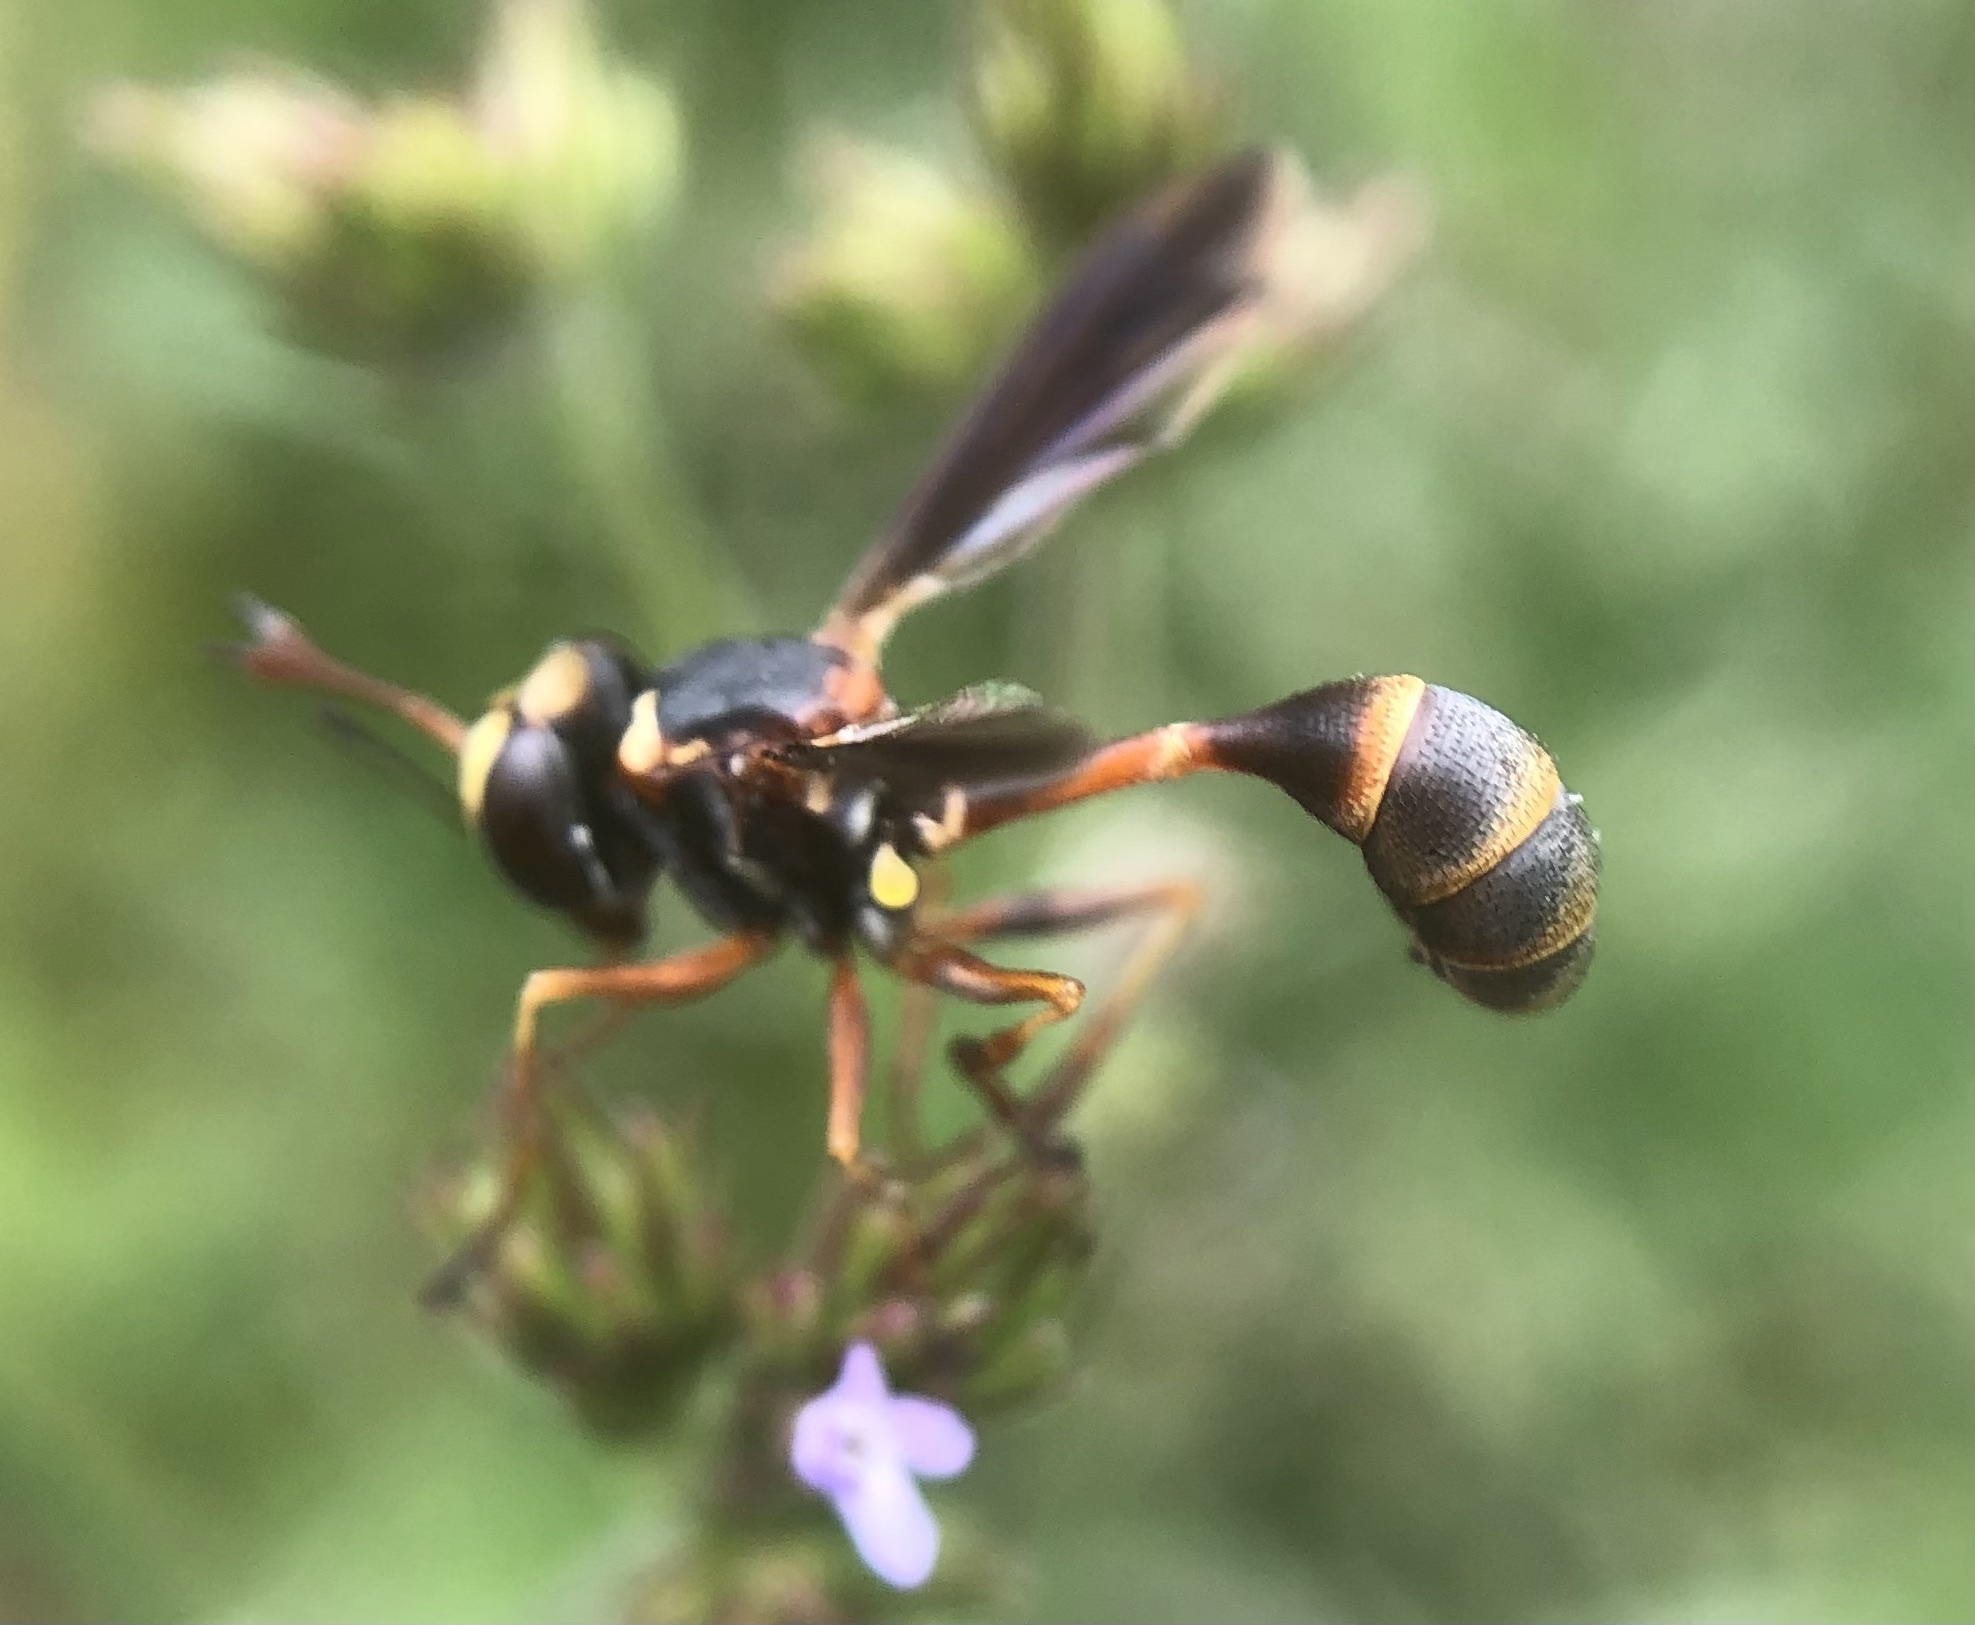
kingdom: Animalia
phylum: Arthropoda
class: Insecta
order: Diptera
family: Conopidae
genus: Physocephala
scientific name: Physocephala sagittaria
